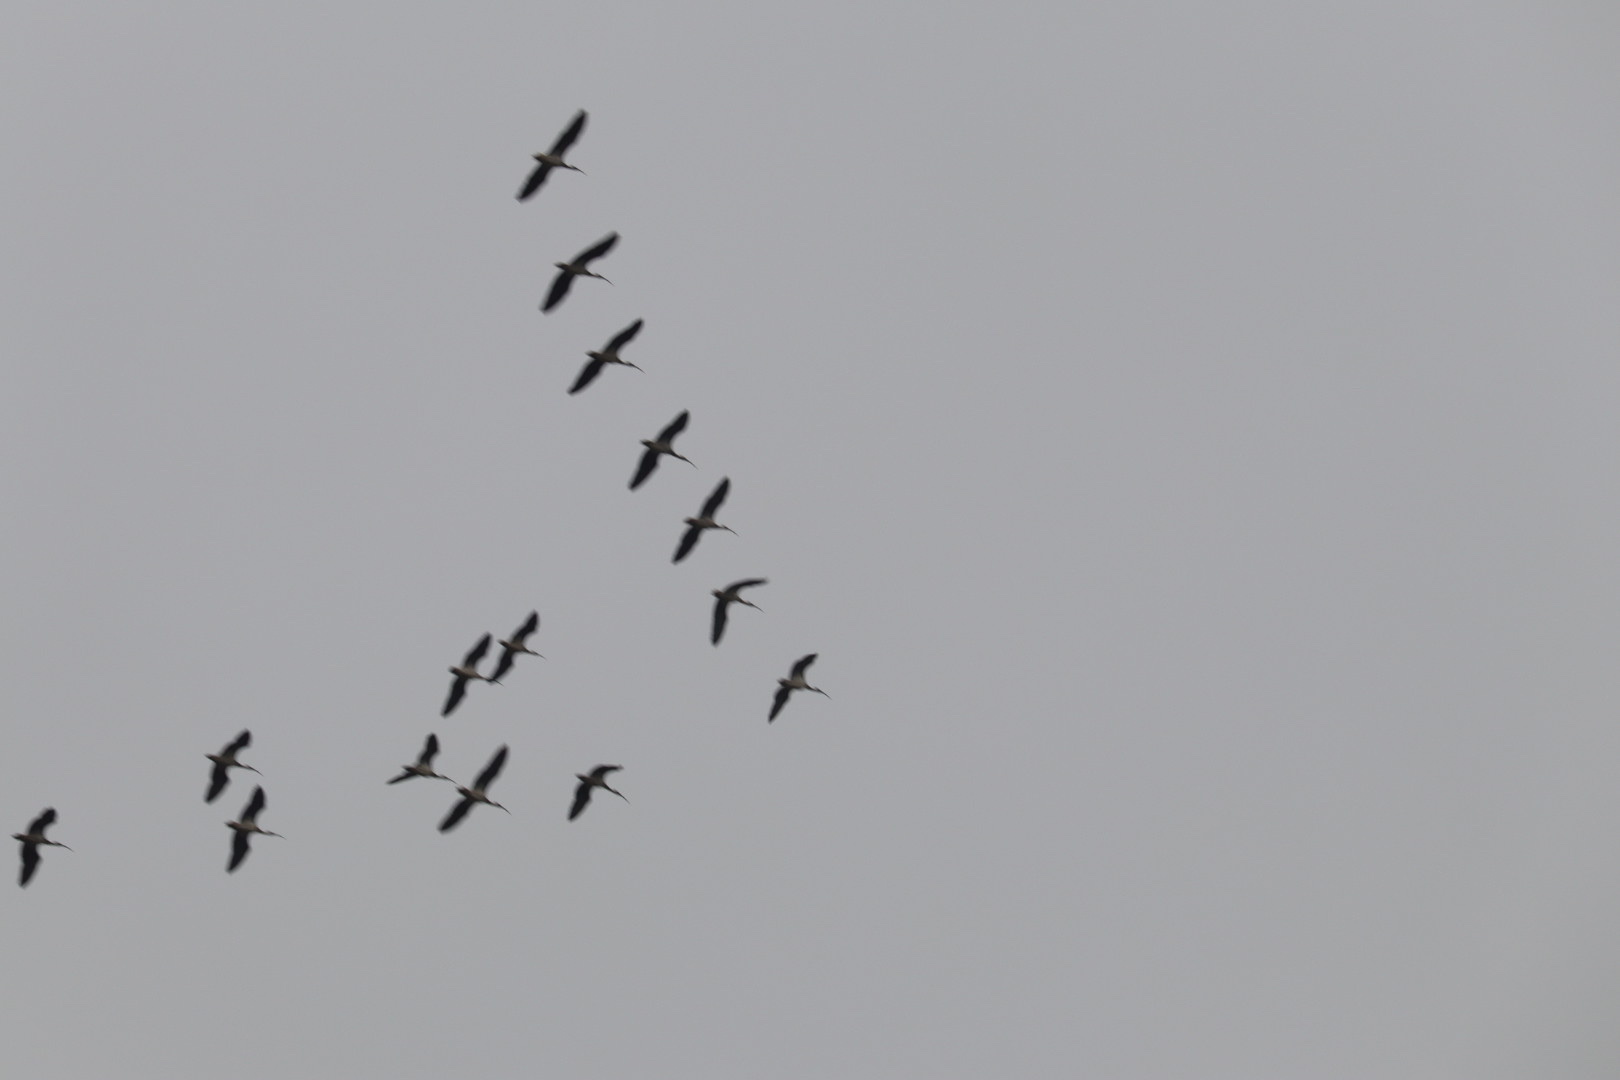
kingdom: Animalia
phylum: Chordata
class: Aves
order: Pelecaniformes
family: Threskiornithidae
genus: Threskiornis
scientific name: Threskiornis spinicollis
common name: Straw-necked ibis
